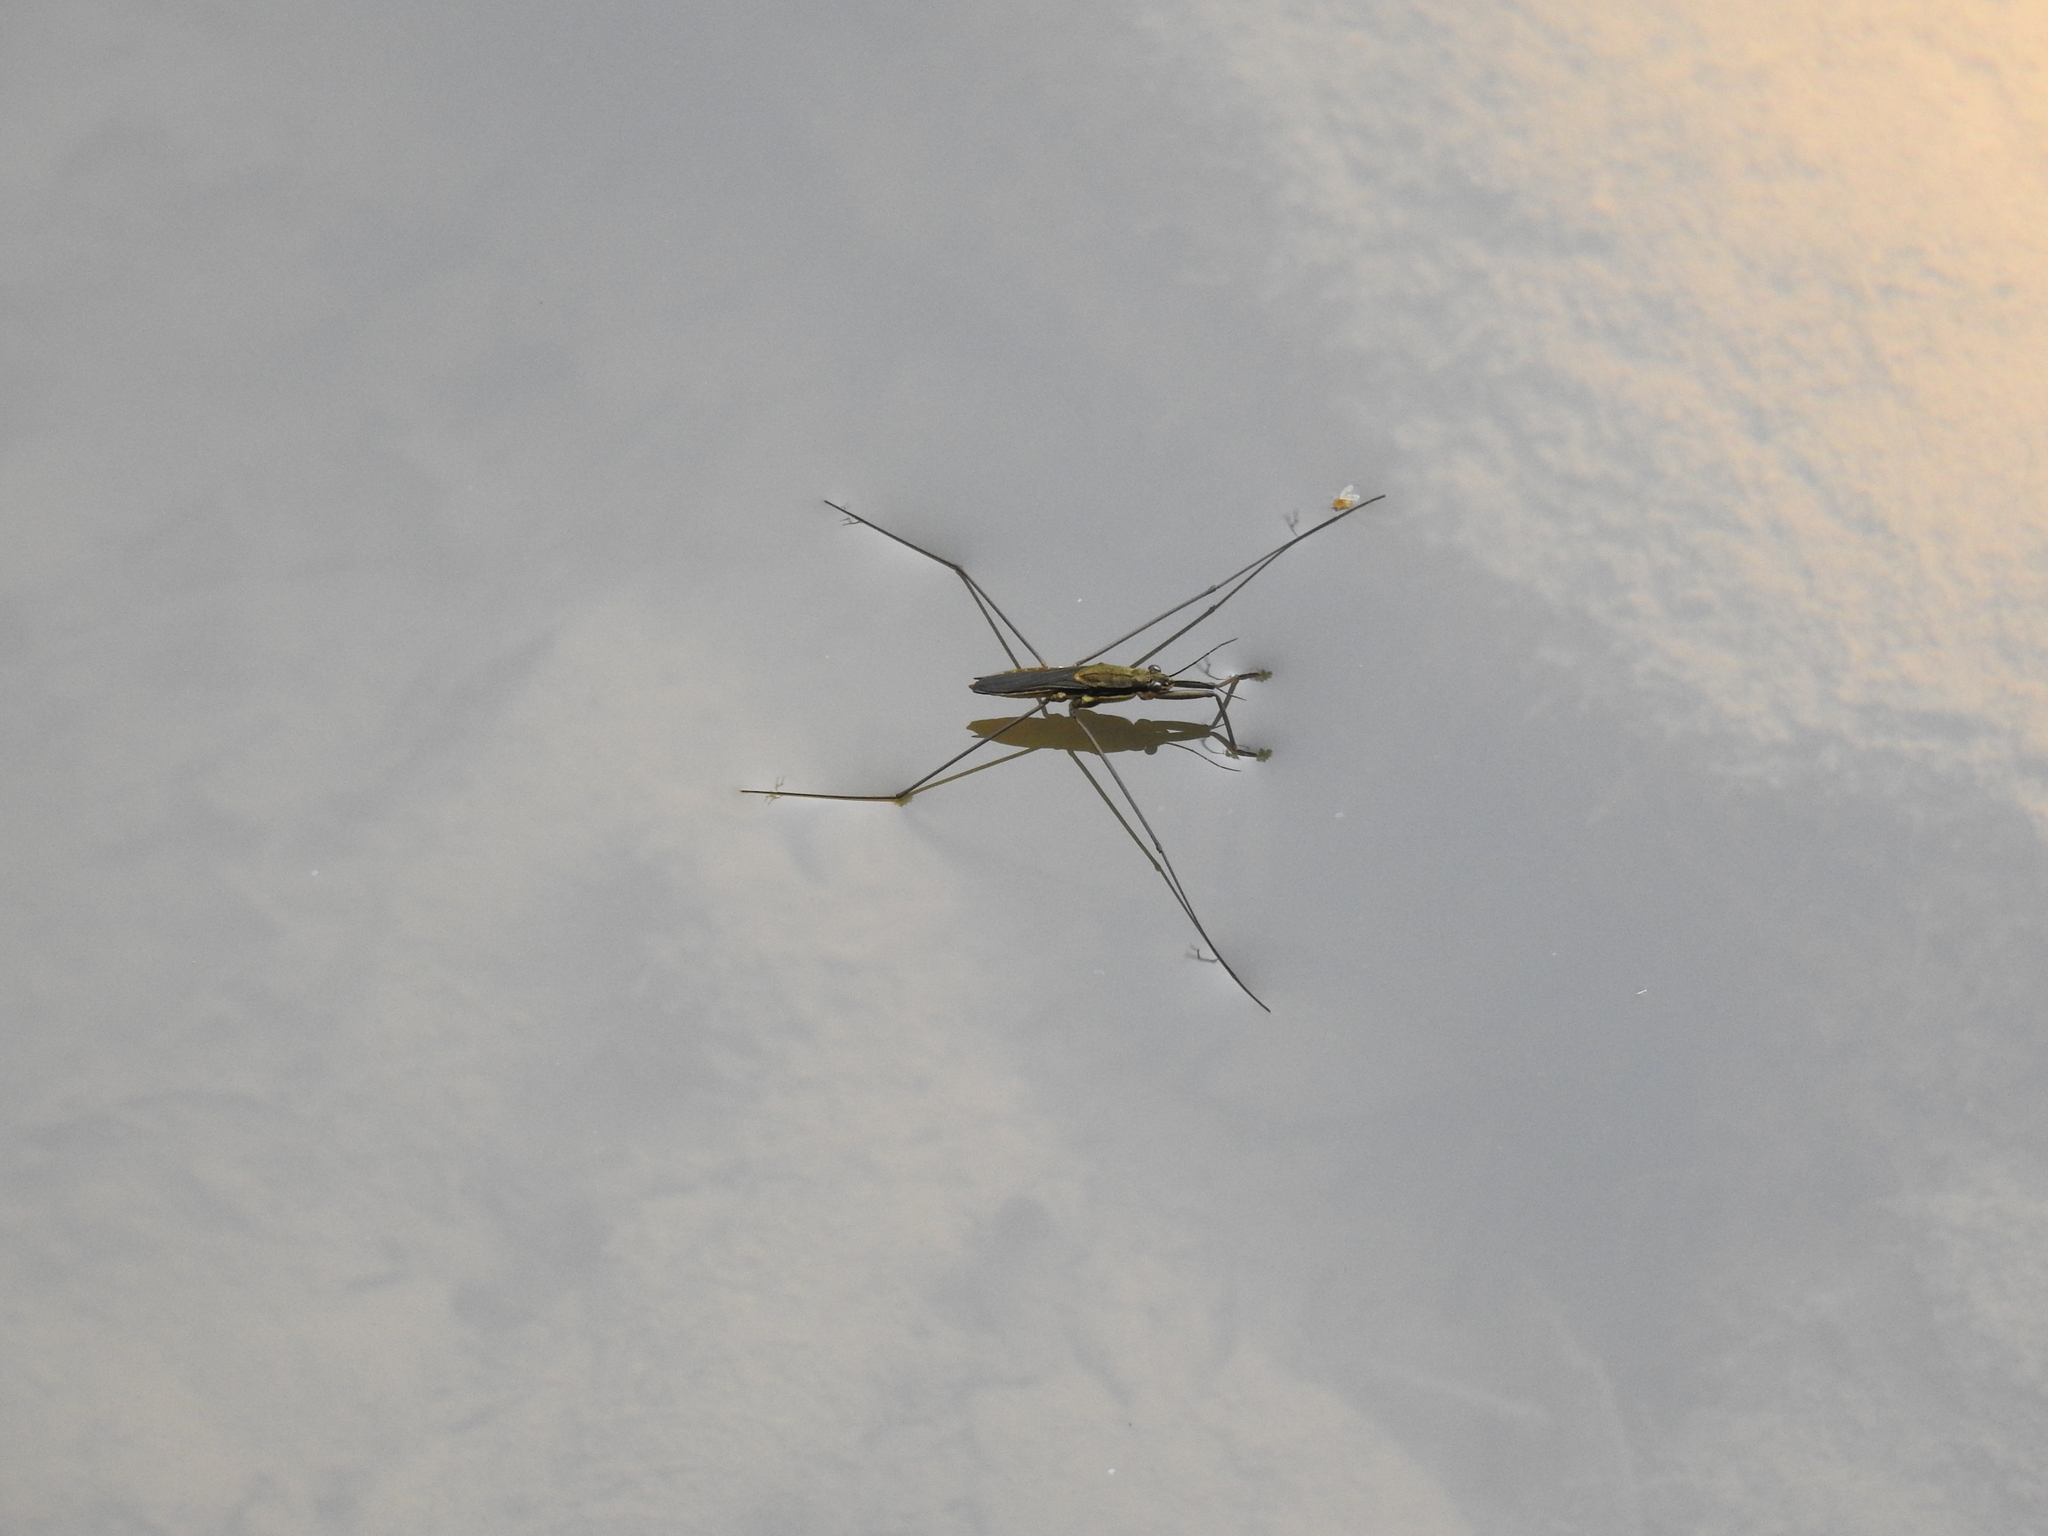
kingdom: Animalia
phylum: Arthropoda
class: Insecta
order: Hemiptera
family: Gerridae
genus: Aquarius
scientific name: Aquarius conformis
